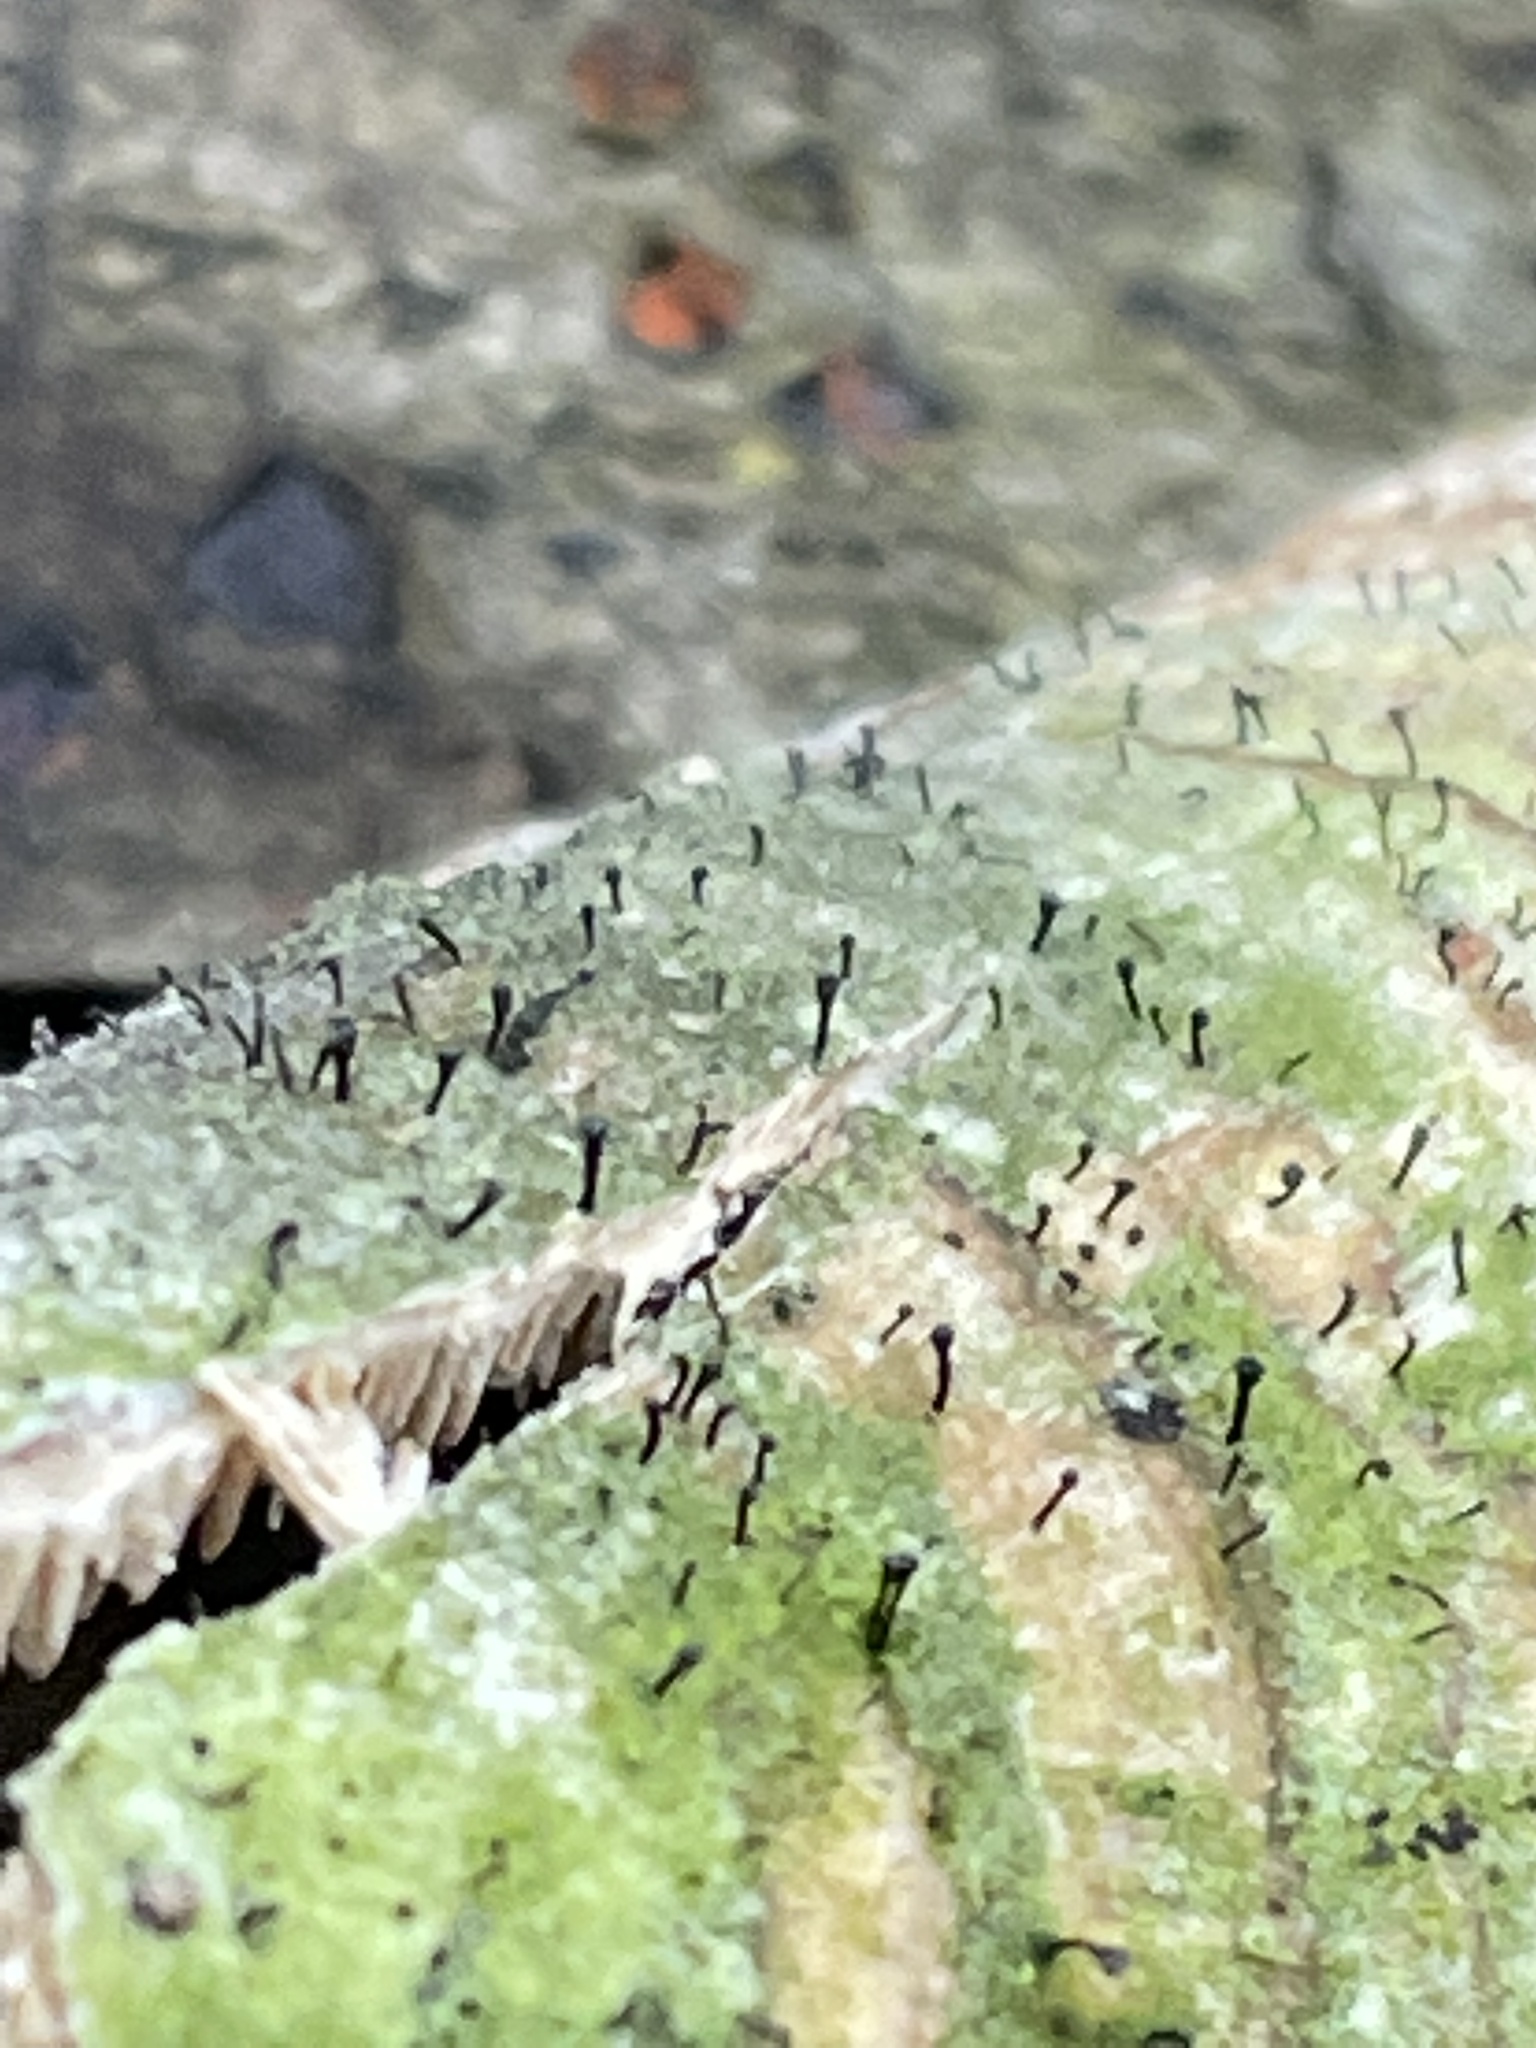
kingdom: Fungi
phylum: Ascomycota
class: Eurotiomycetes
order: Mycocaliciales
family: Mycocaliciaceae
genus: Phaeocalicium
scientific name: Phaeocalicium polyporaeum
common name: Fairy pins
